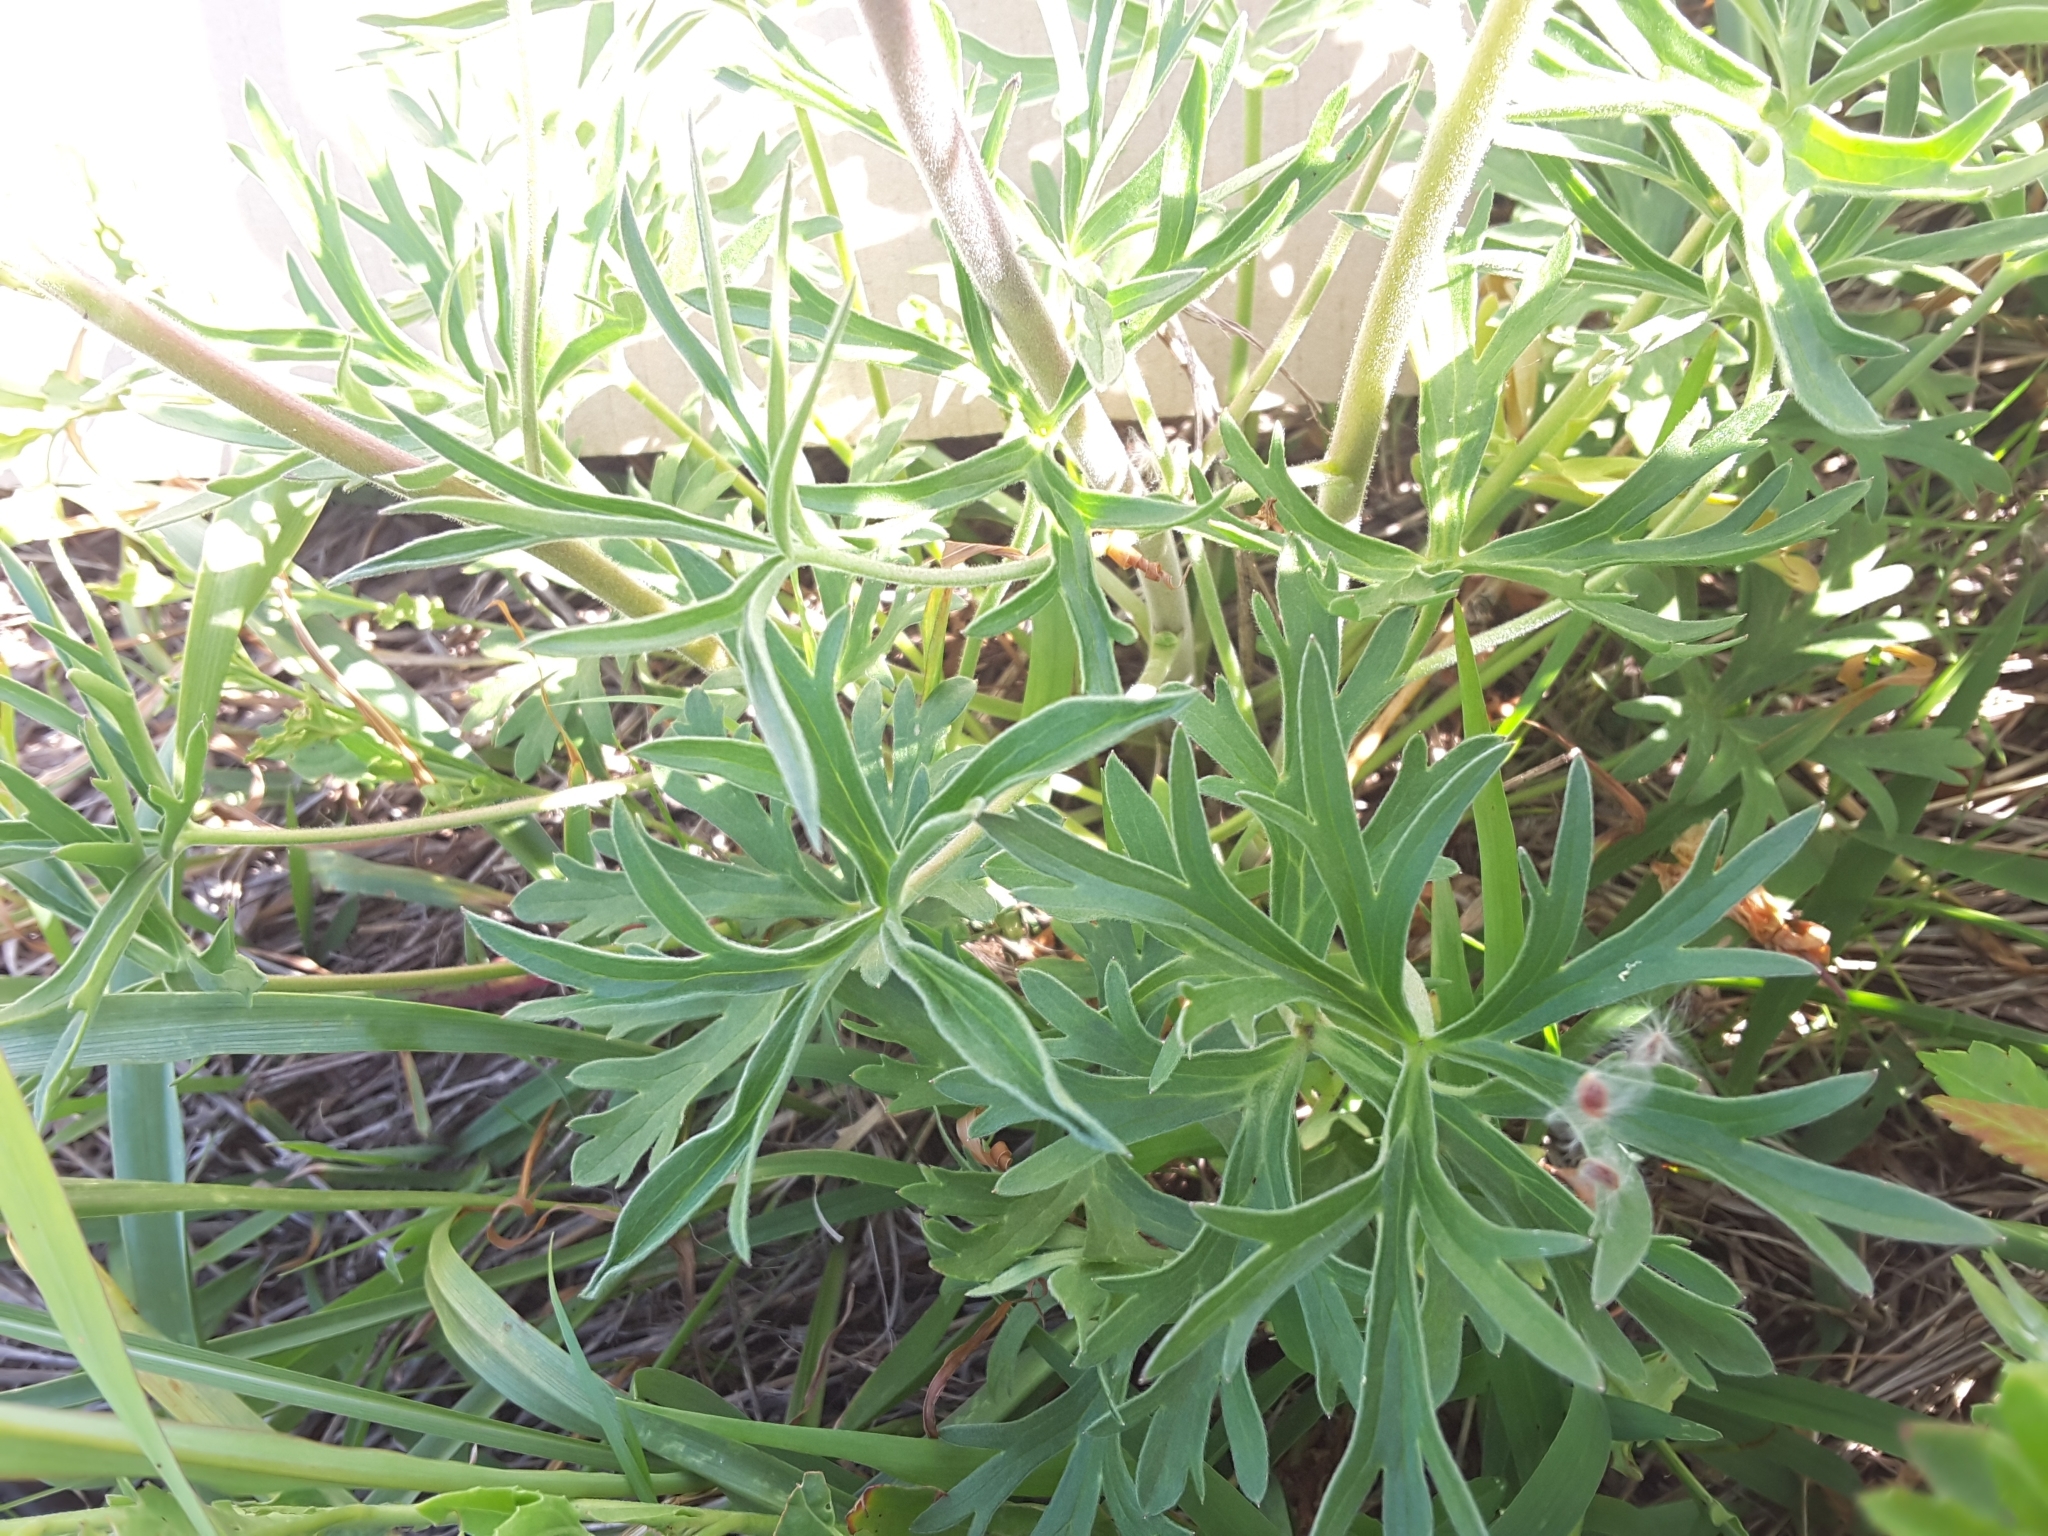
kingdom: Plantae
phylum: Tracheophyta
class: Magnoliopsida
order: Ranunculales
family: Ranunculaceae
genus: Delphinium
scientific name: Delphinium carolinianum
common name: Carolina larkspur
